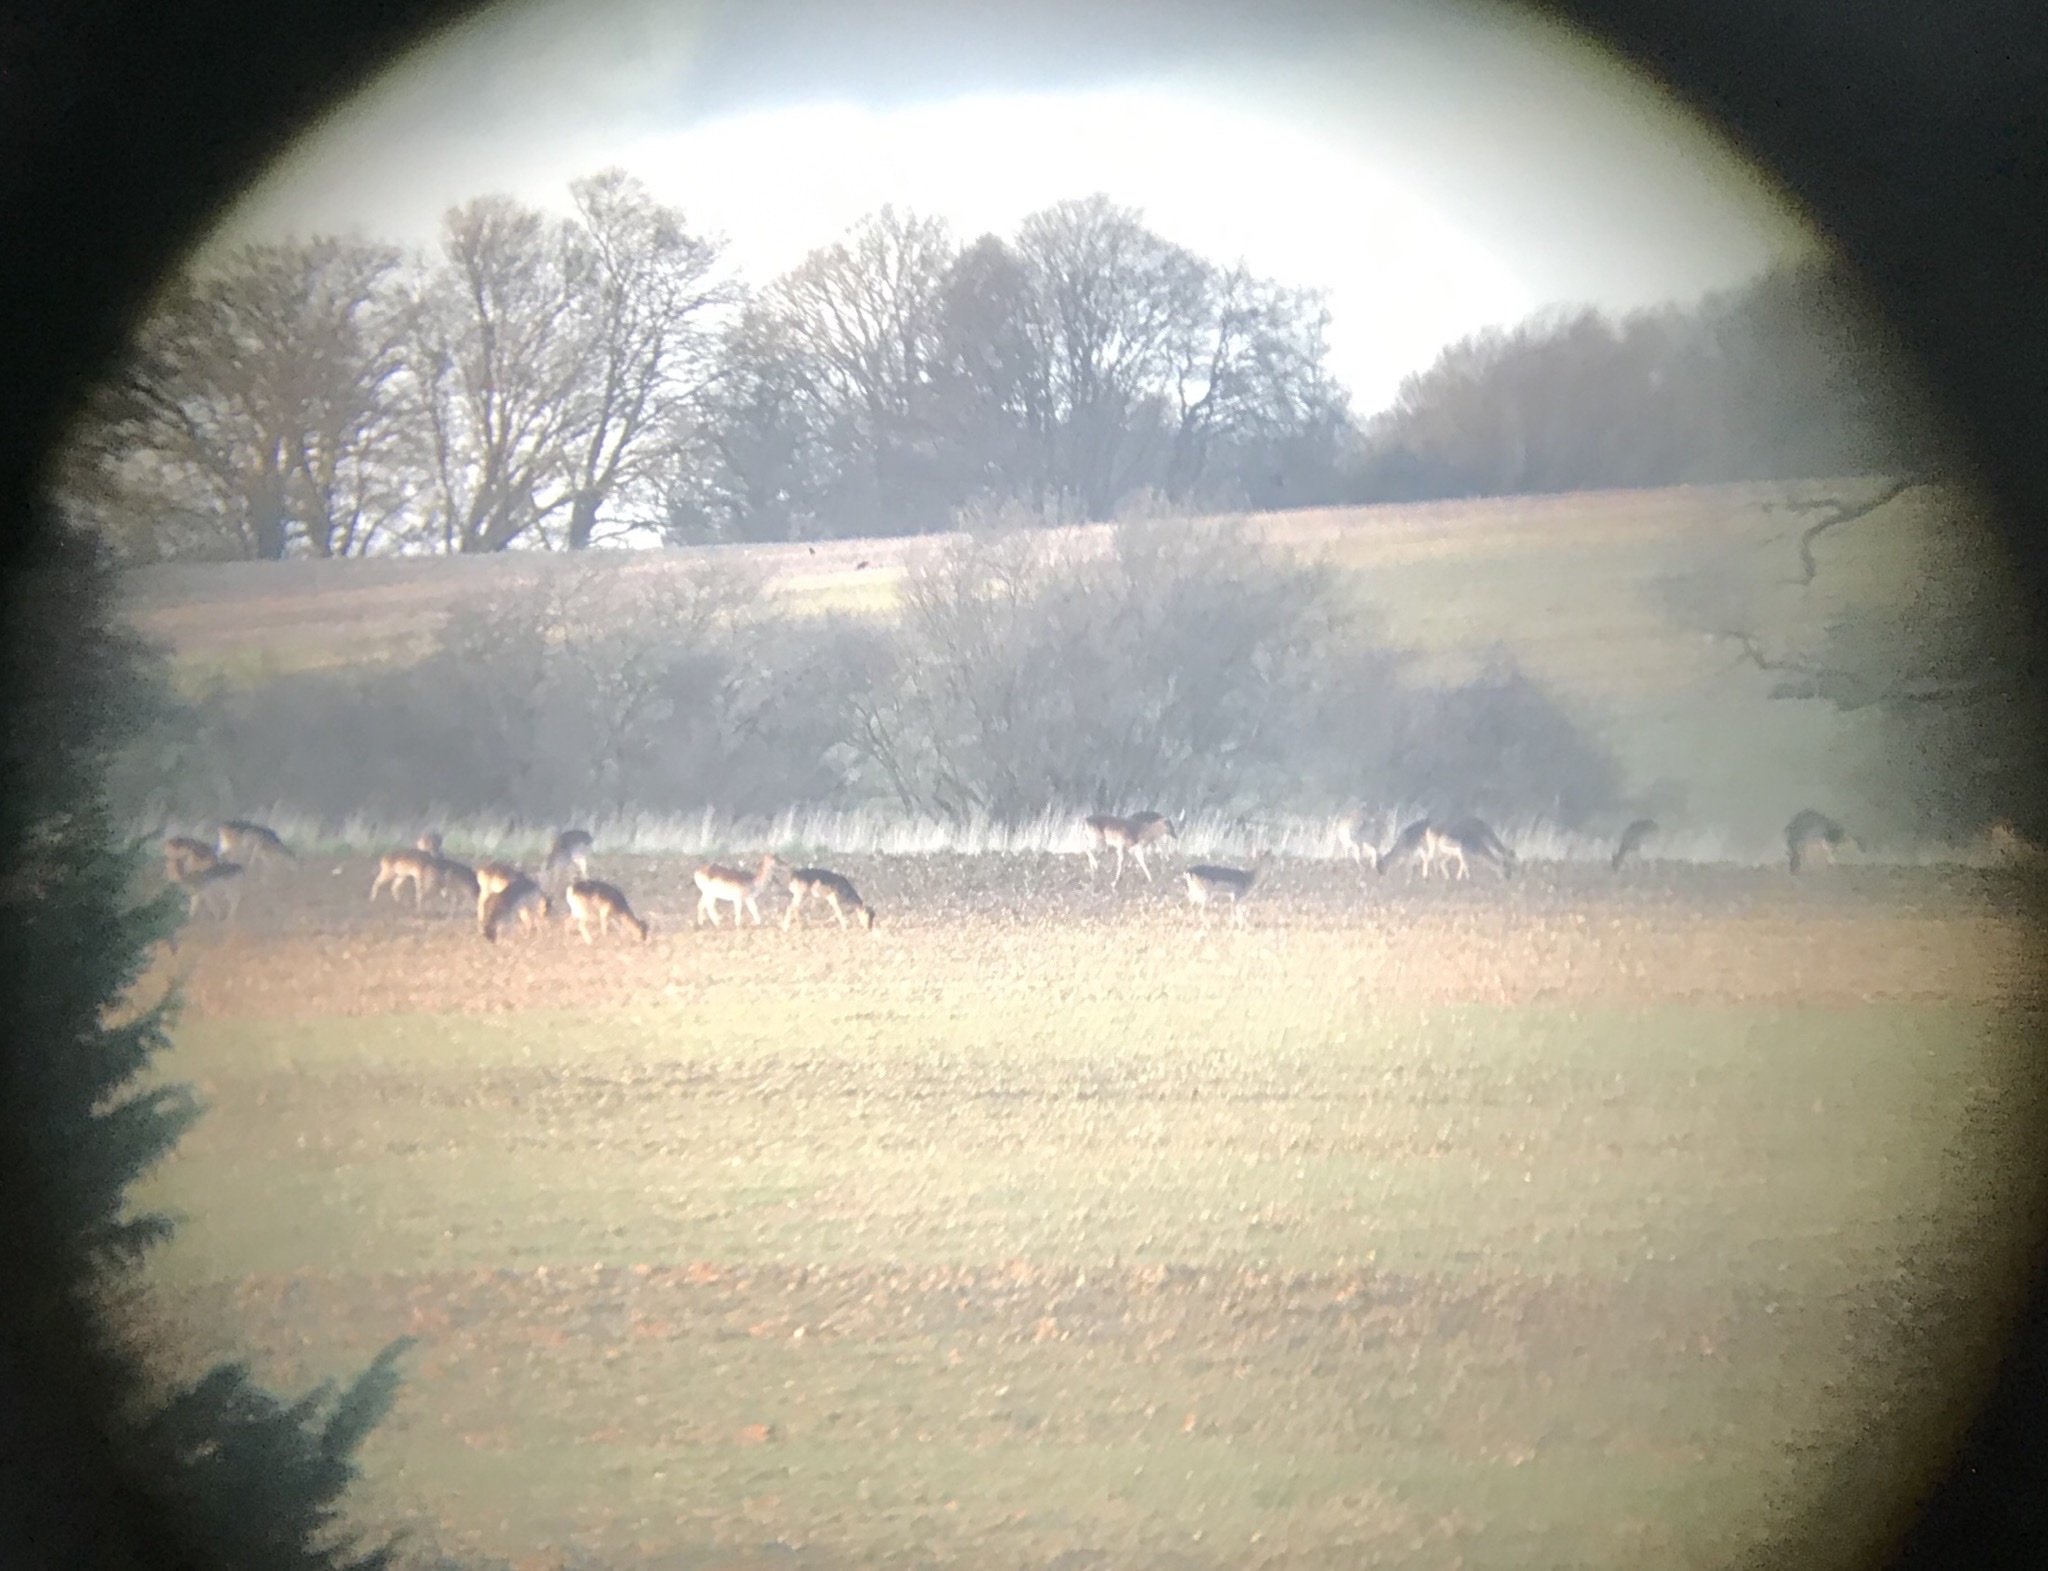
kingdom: Animalia
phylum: Chordata
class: Mammalia
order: Artiodactyla
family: Cervidae
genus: Dama
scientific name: Dama dama
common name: Fallow deer
